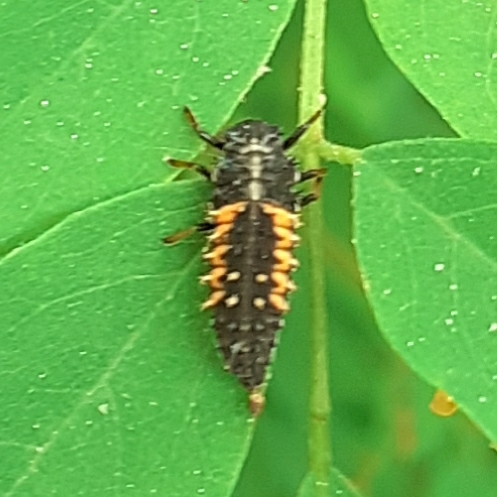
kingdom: Animalia
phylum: Arthropoda
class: Insecta
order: Coleoptera
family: Coccinellidae
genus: Harmonia
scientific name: Harmonia axyridis
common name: Harlequin ladybird
